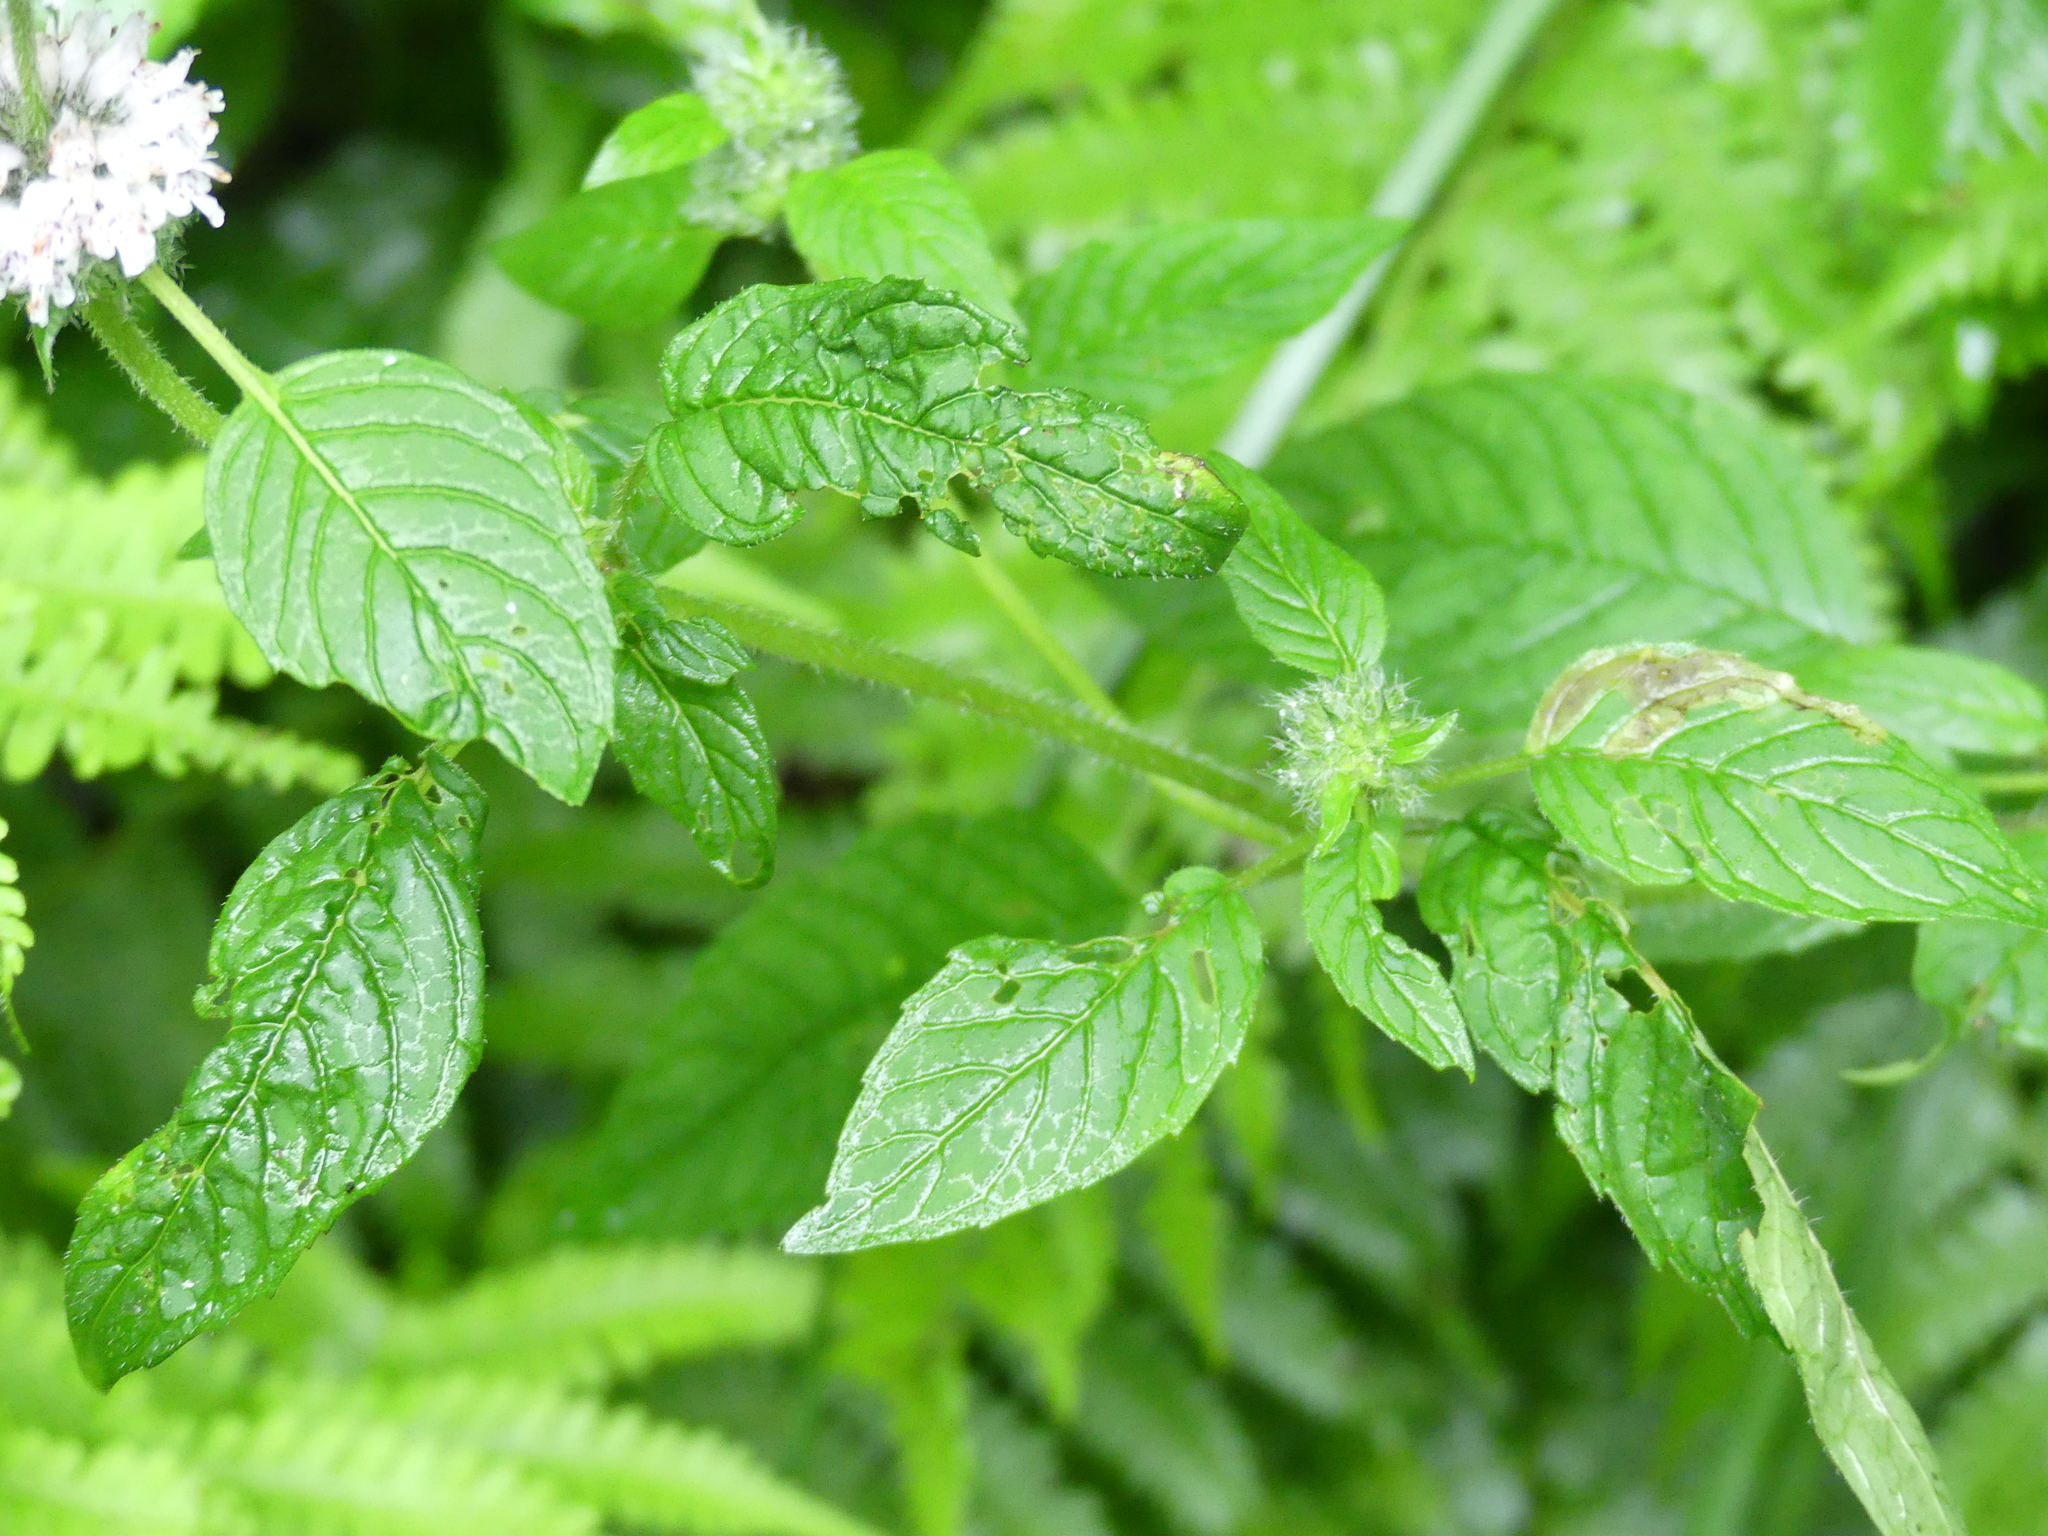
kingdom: Plantae
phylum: Tracheophyta
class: Magnoliopsida
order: Lamiales
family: Lamiaceae
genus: Blephilia
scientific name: Blephilia hirsuta
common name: Hairy blephilia
